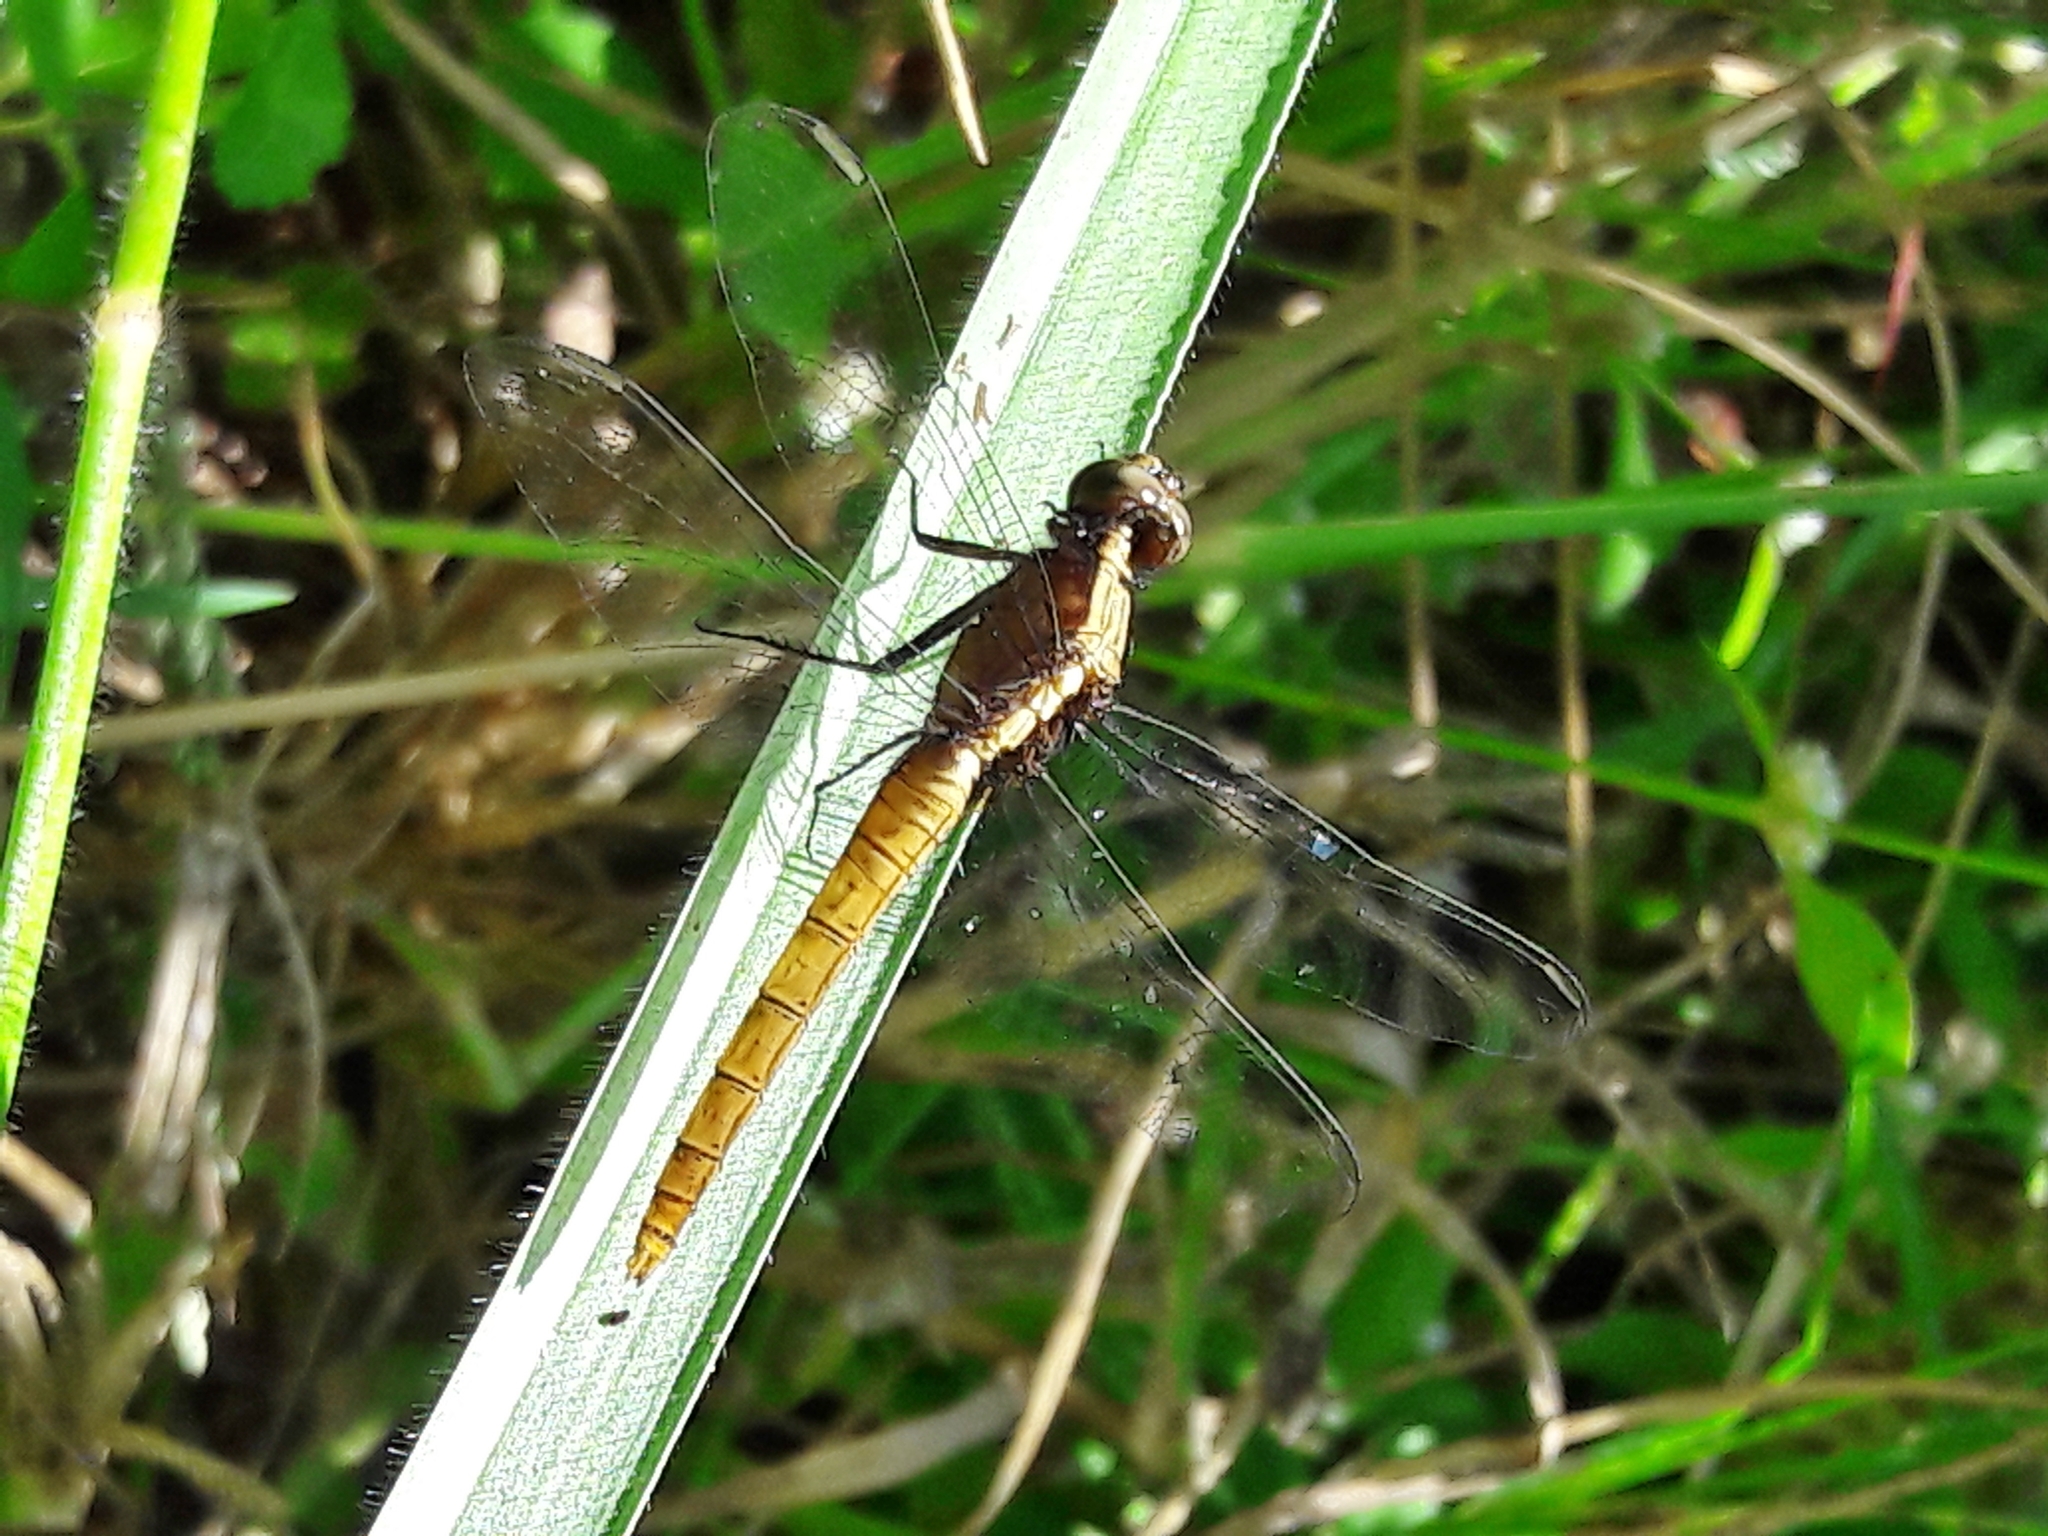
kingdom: Animalia
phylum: Arthropoda
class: Insecta
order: Odonata
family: Libellulidae
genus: Erythemis
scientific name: Erythemis peruviana
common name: Flame-tailed pondhawk
